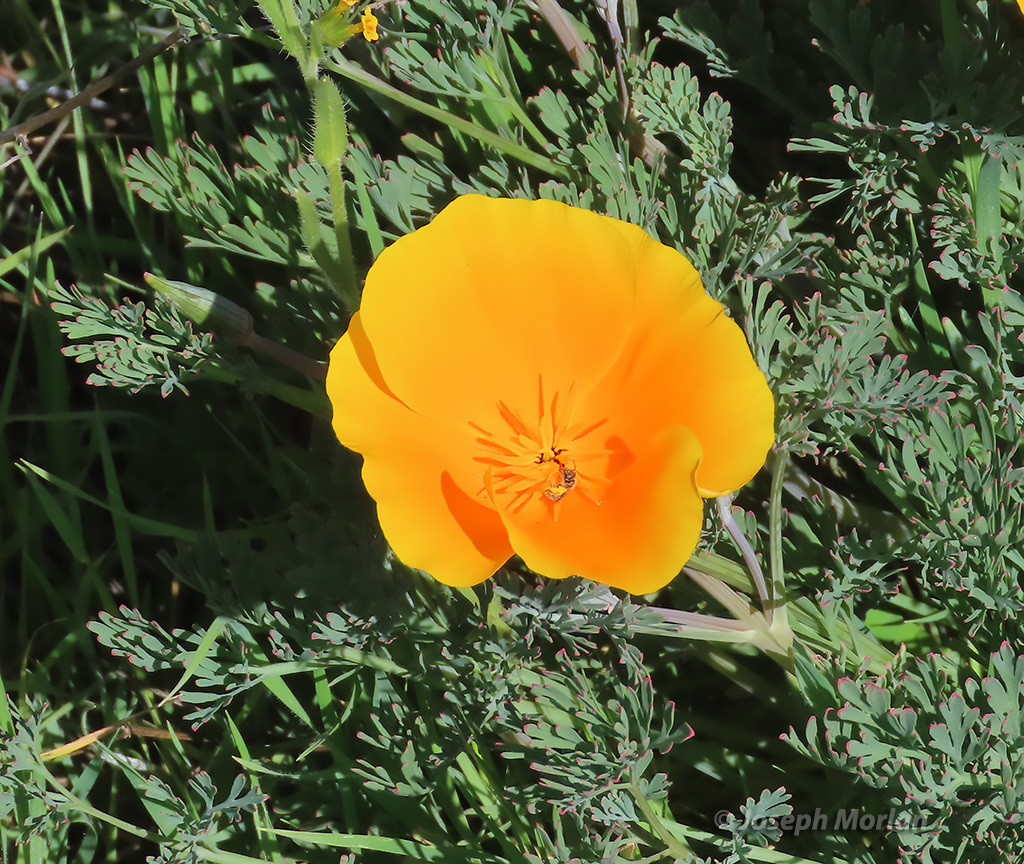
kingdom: Plantae
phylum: Tracheophyta
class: Magnoliopsida
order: Ranunculales
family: Papaveraceae
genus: Eschscholzia
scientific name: Eschscholzia californica
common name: California poppy
